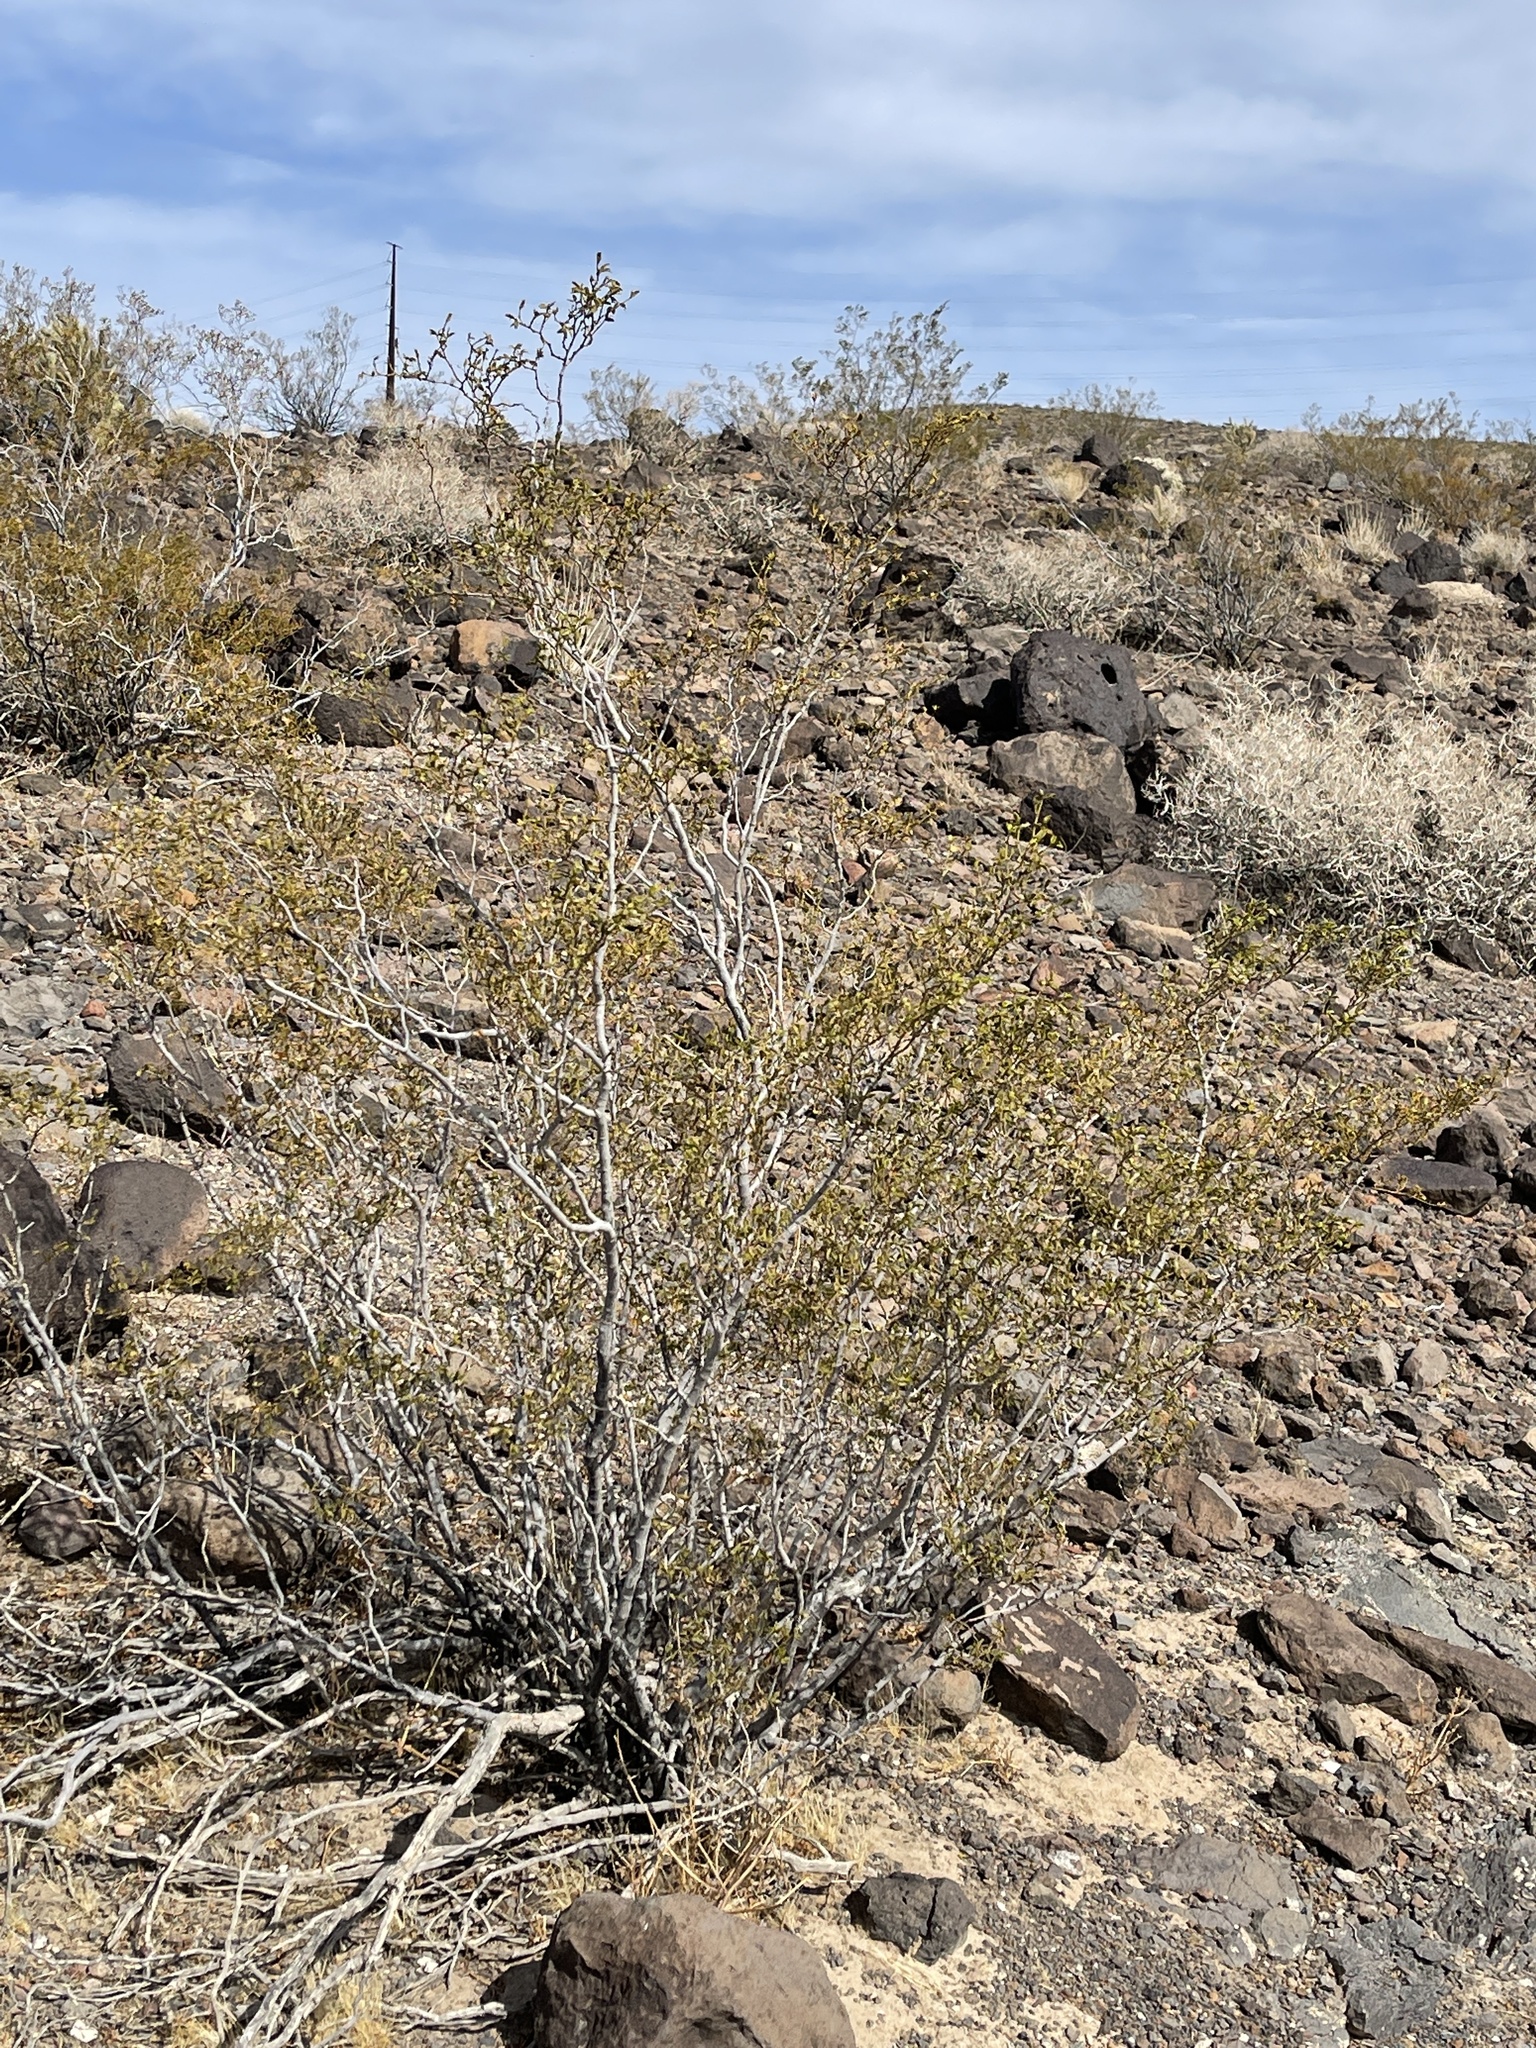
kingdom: Plantae
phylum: Tracheophyta
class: Magnoliopsida
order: Zygophyllales
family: Zygophyllaceae
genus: Larrea
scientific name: Larrea tridentata
